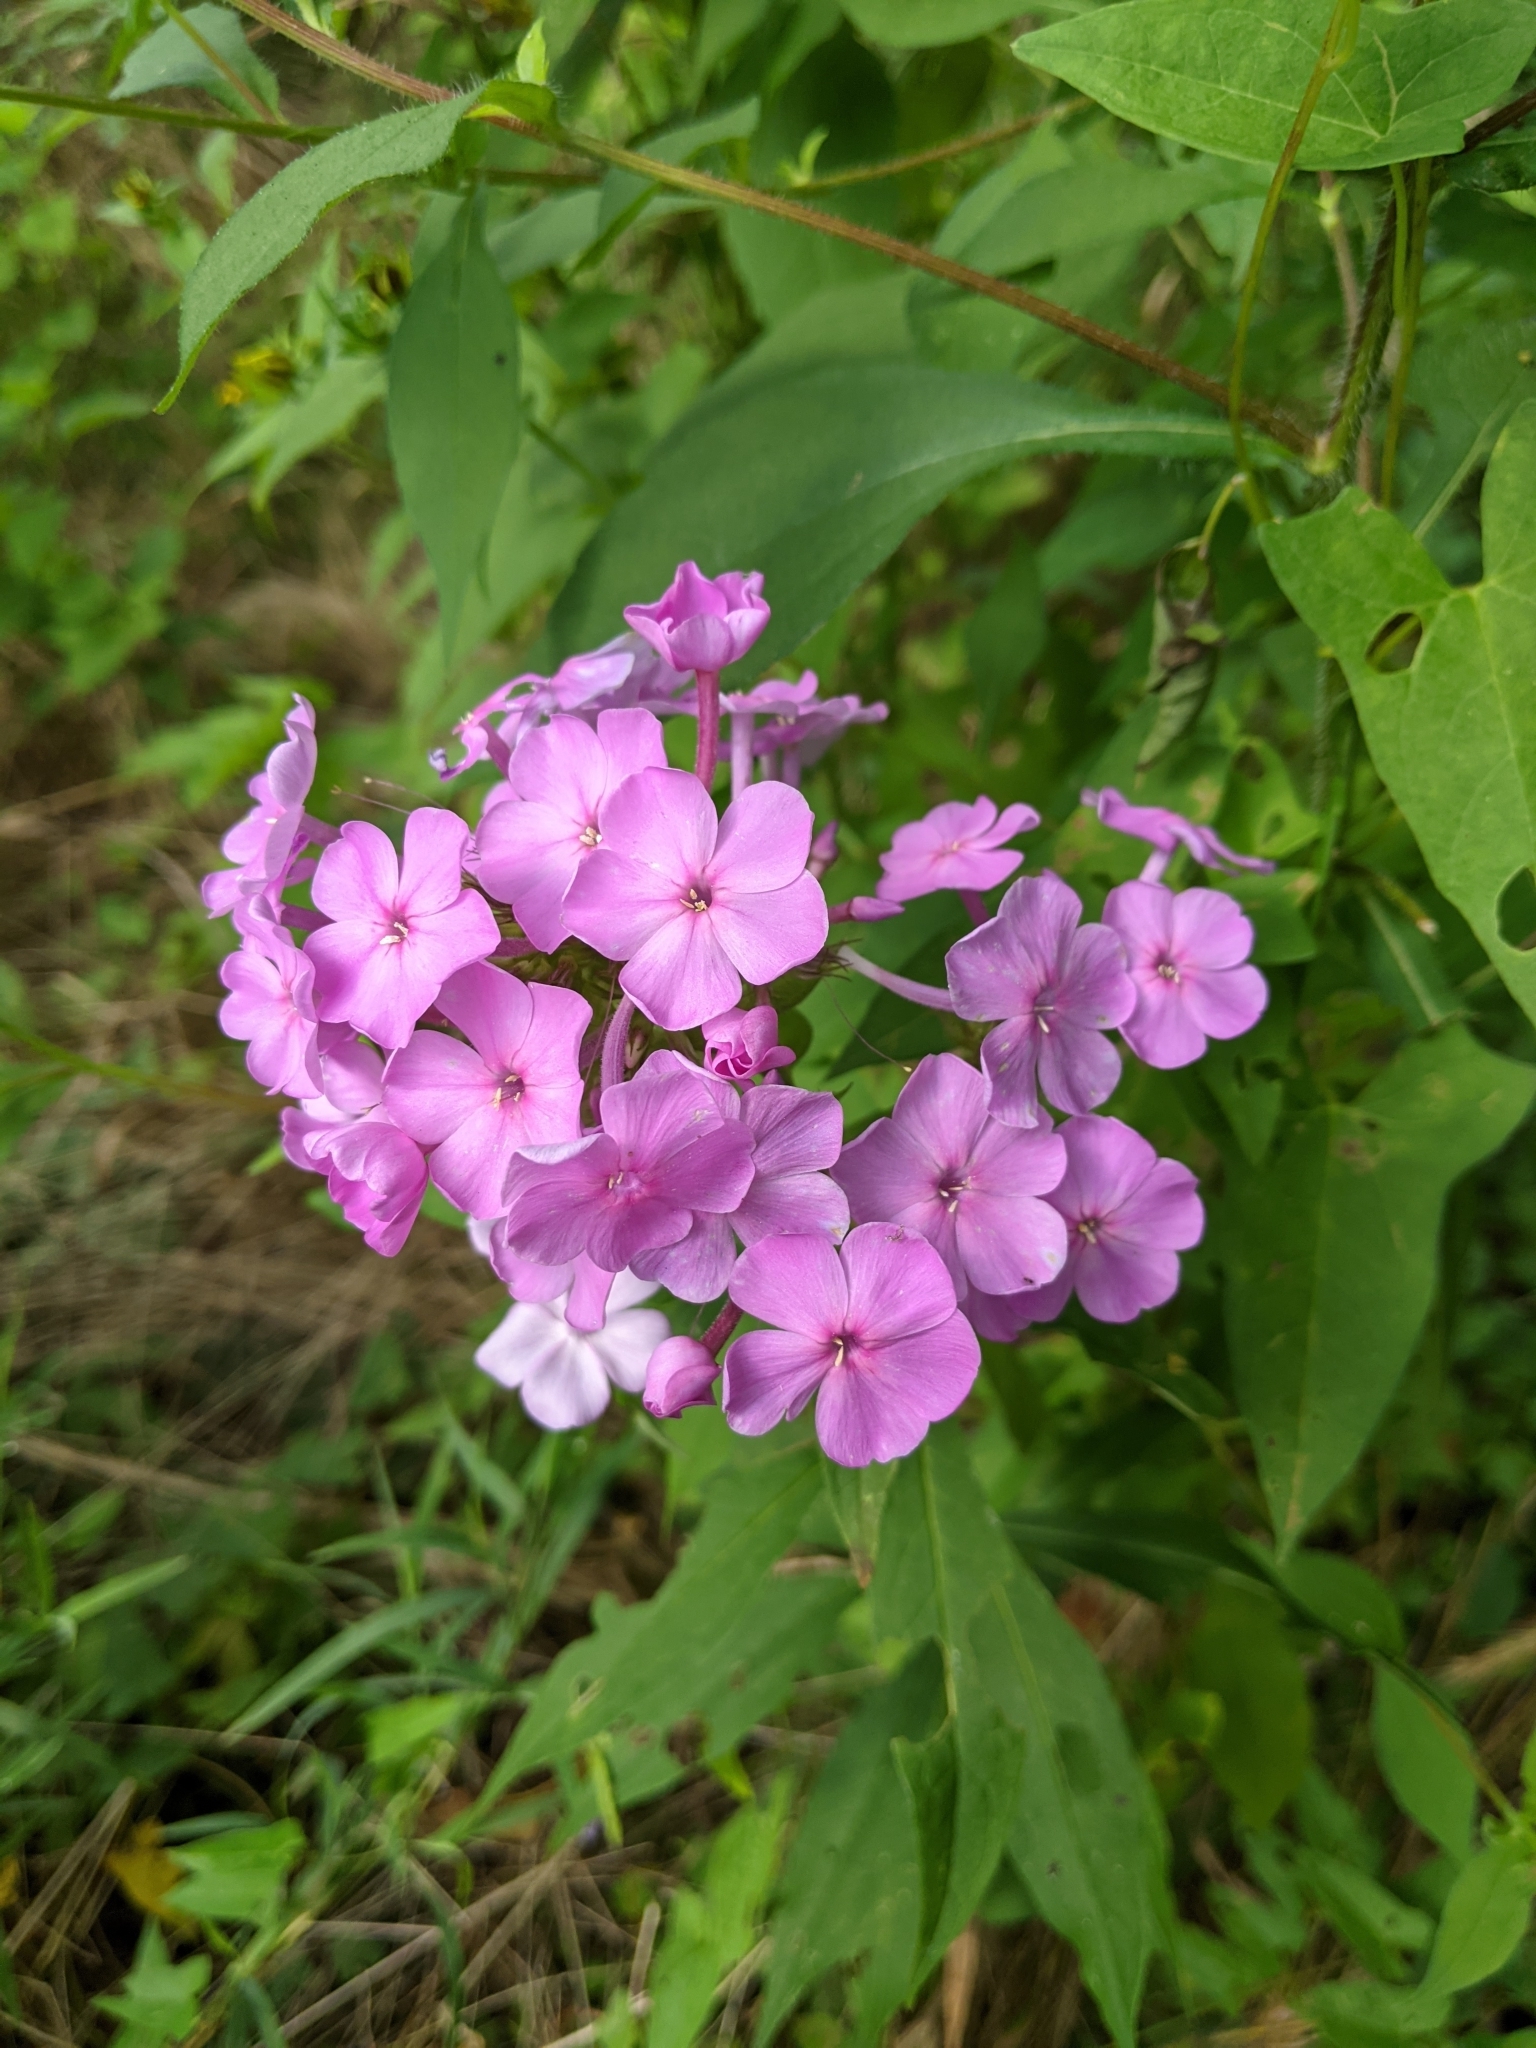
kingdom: Plantae
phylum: Tracheophyta
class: Magnoliopsida
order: Ericales
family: Polemoniaceae
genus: Phlox
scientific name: Phlox paniculata
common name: Fall phlox
